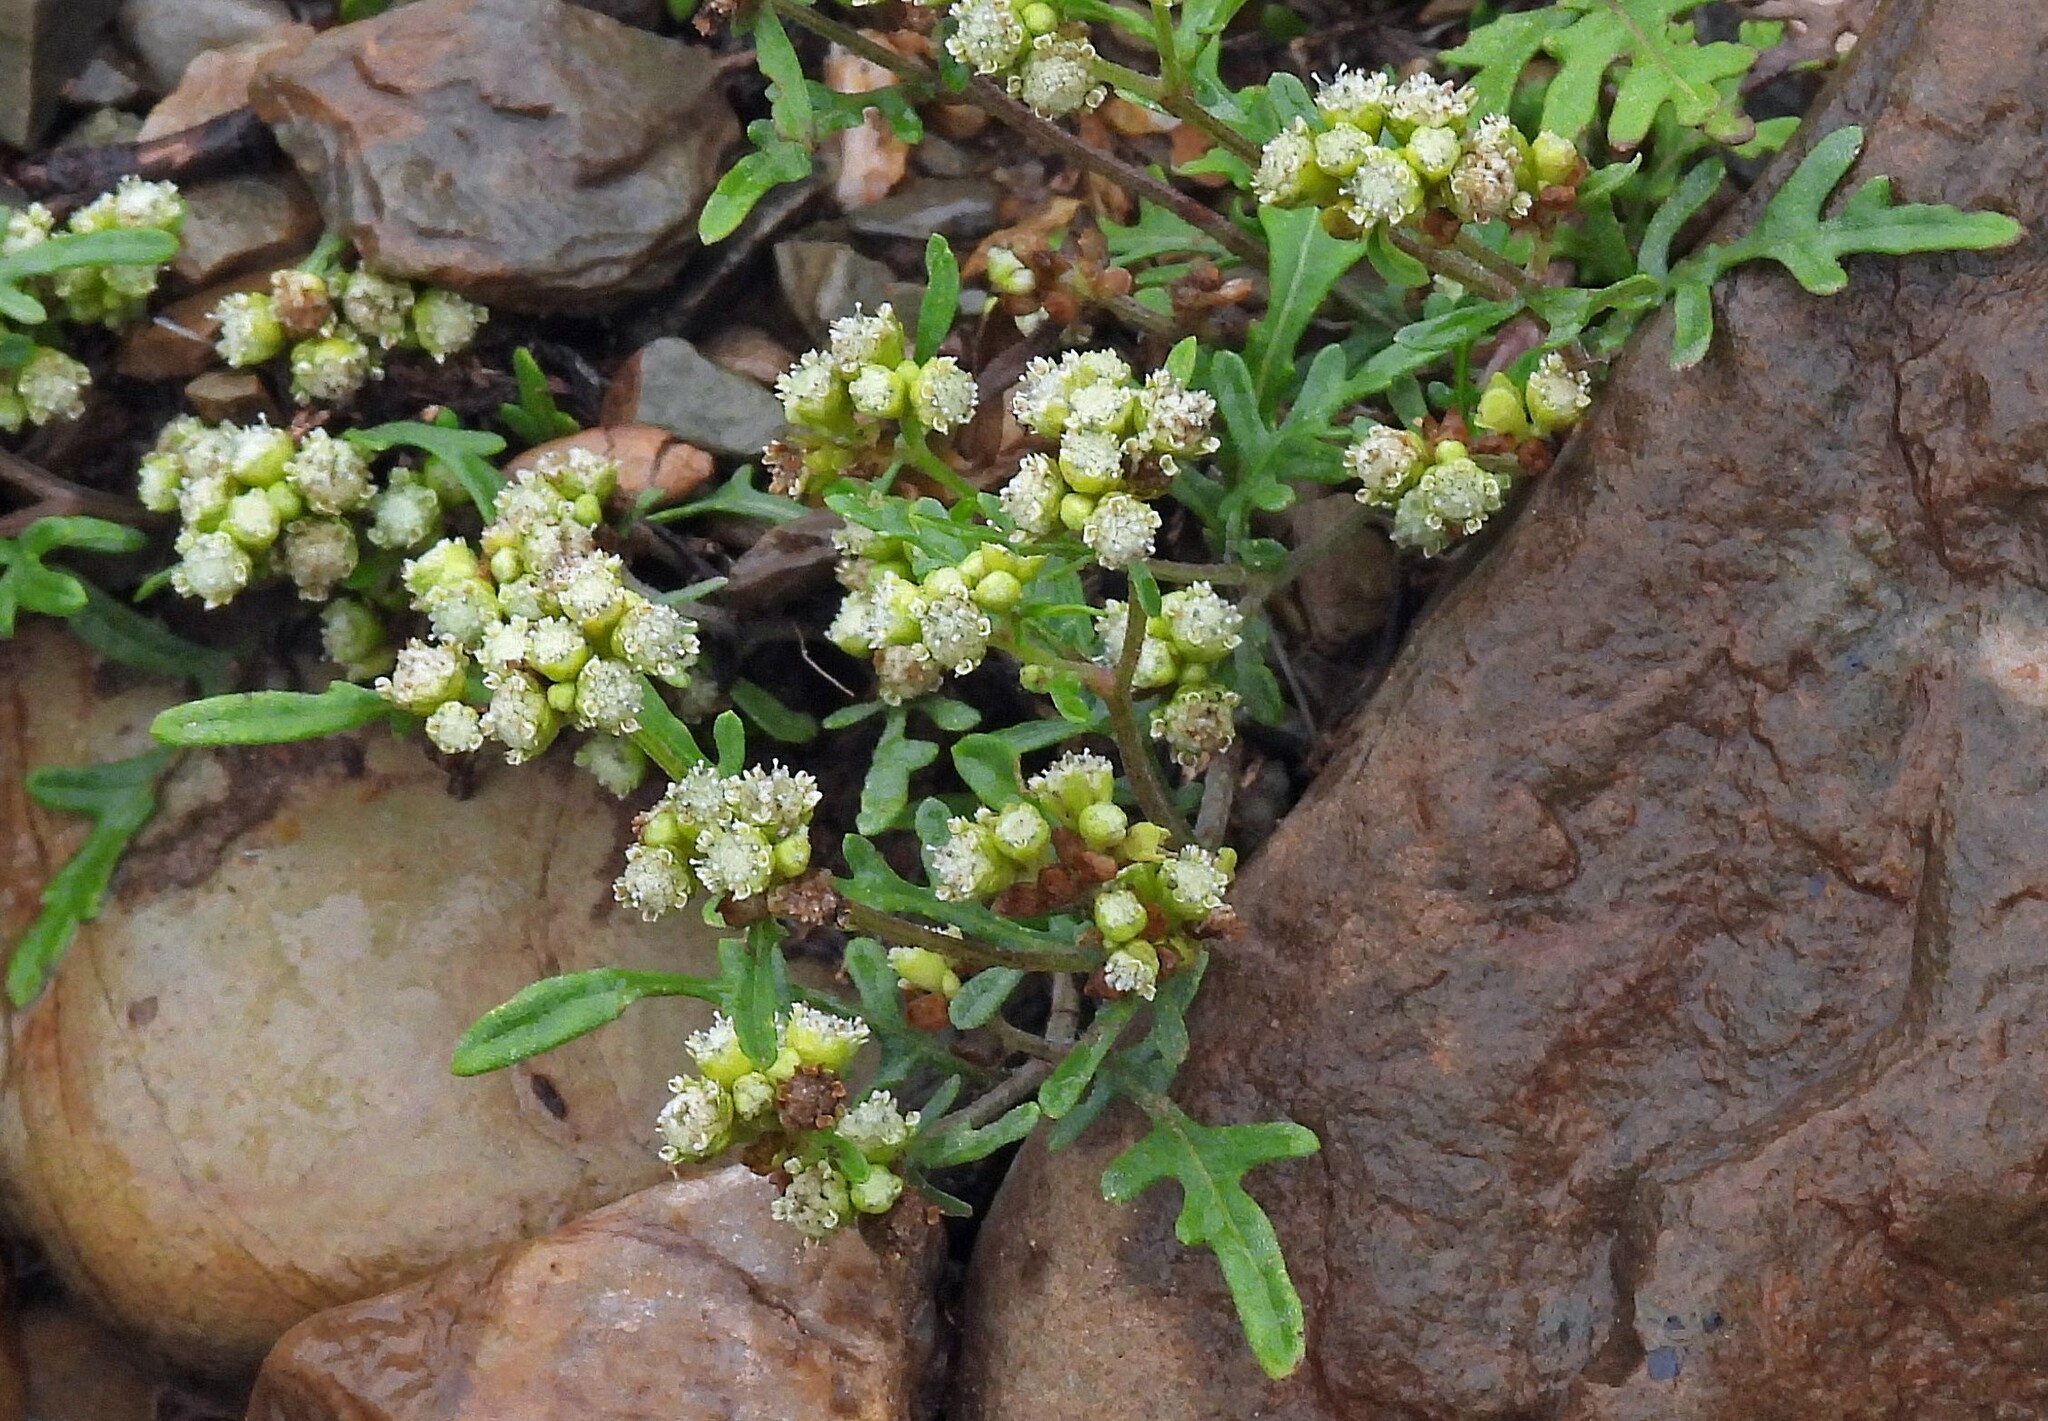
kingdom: Plantae
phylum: Tracheophyta
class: Magnoliopsida
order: Asterales
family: Asteraceae
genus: Parthenium
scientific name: Parthenium hysterophorus
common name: Santa maria feverfew
